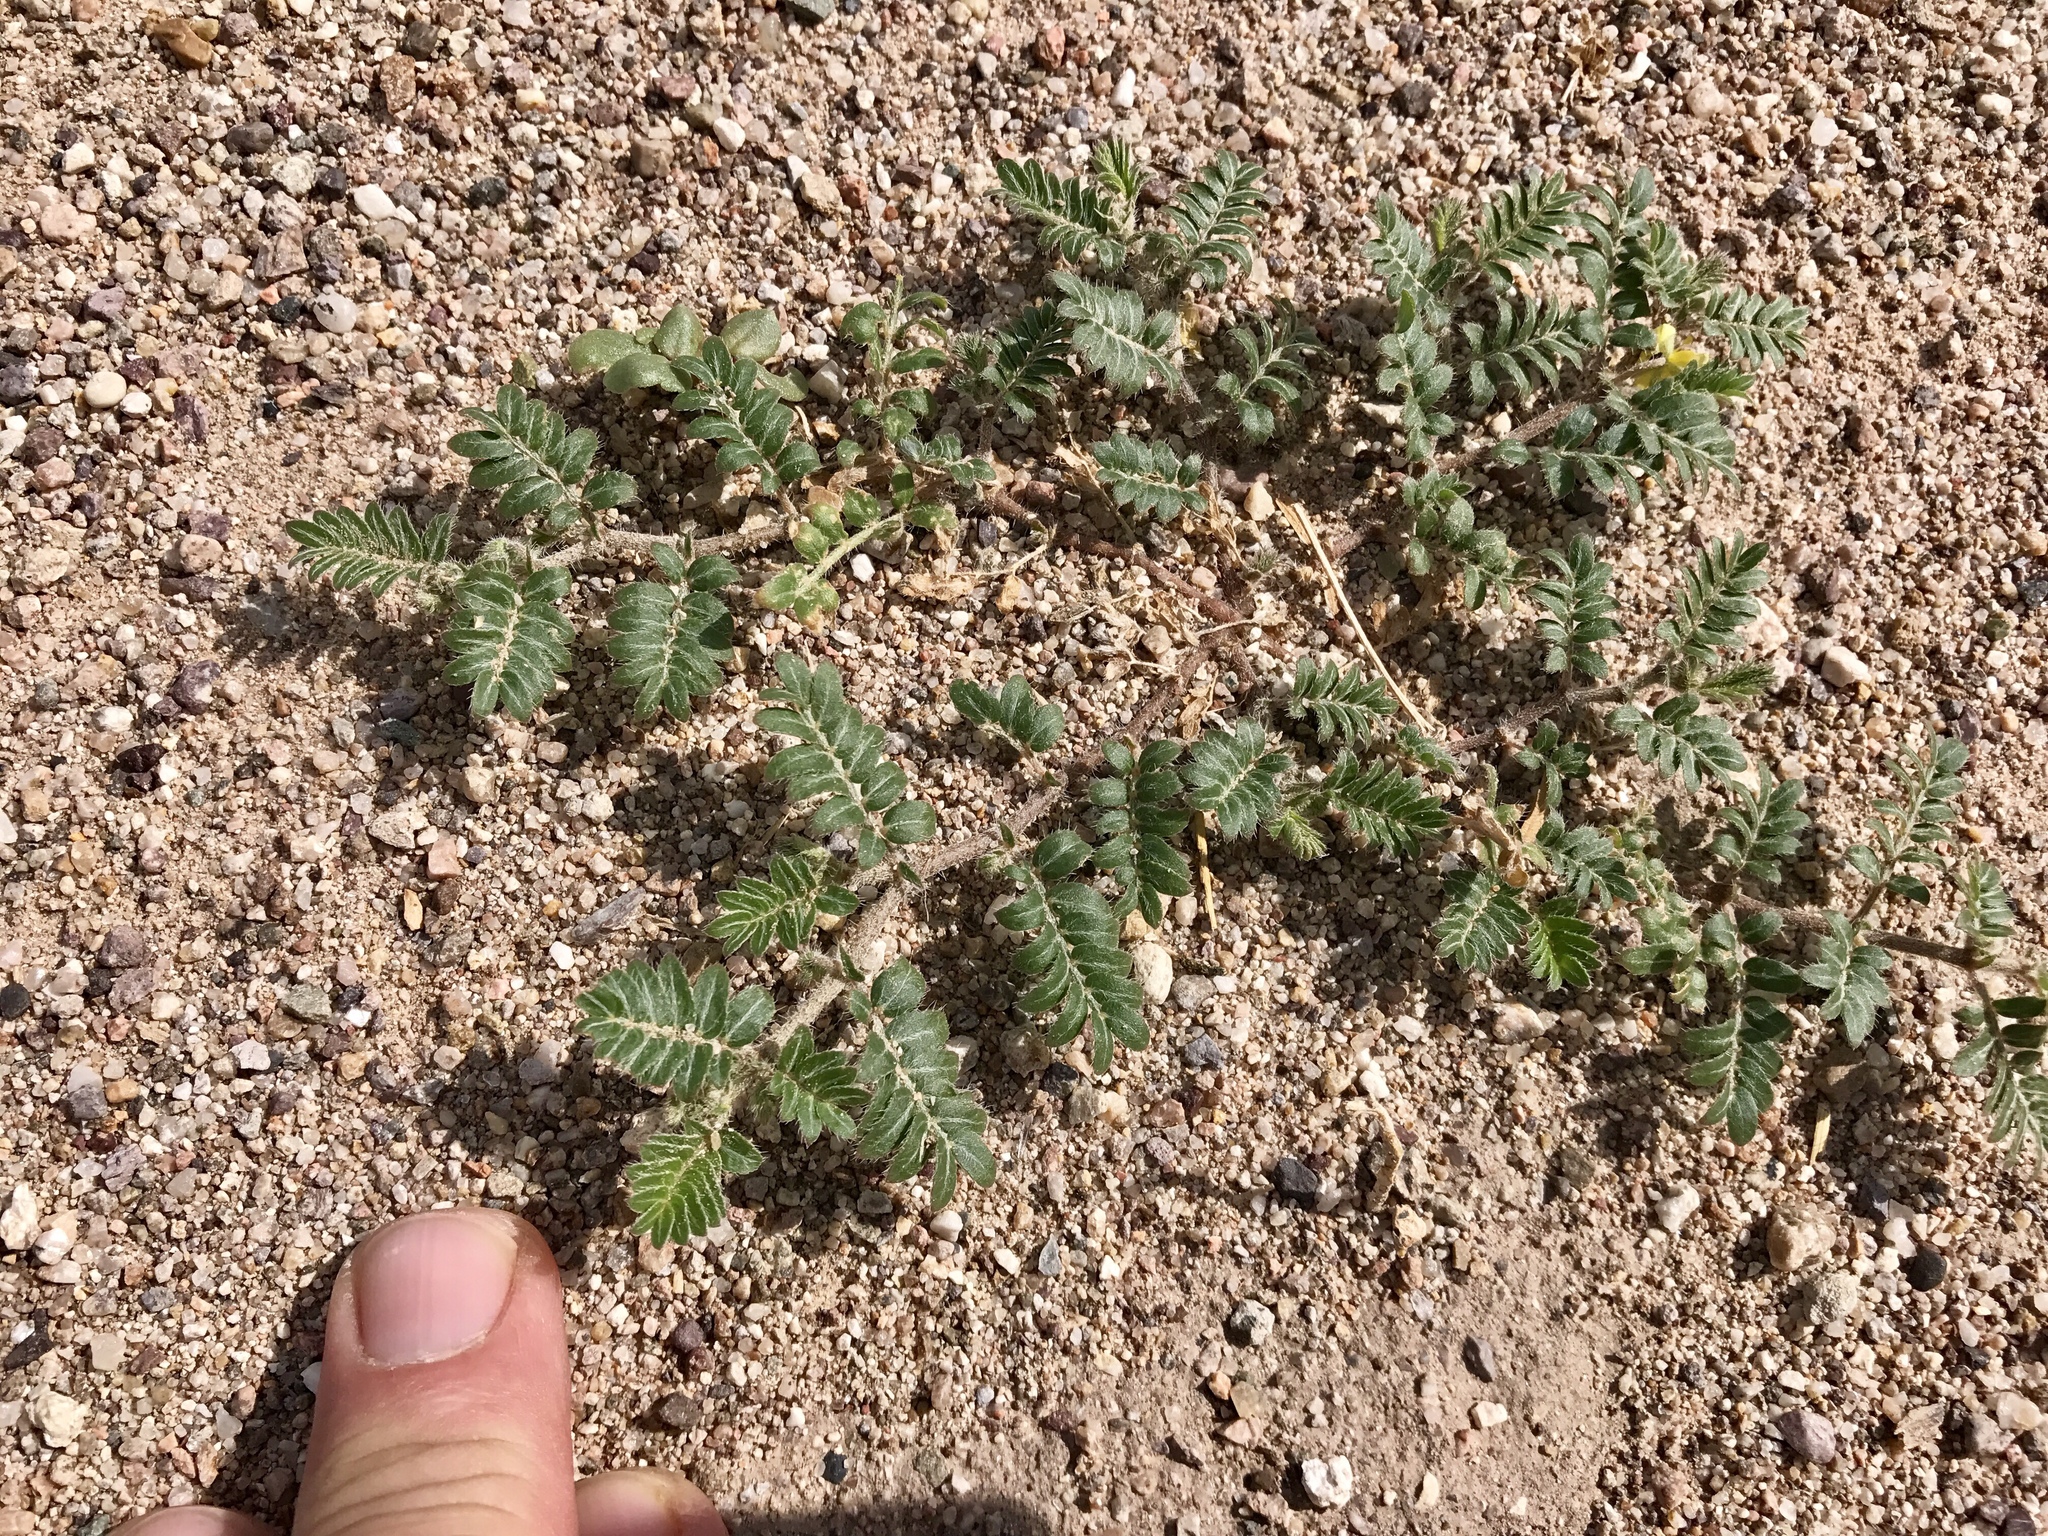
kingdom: Plantae
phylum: Tracheophyta
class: Magnoliopsida
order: Zygophyllales
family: Zygophyllaceae
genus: Tribulus
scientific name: Tribulus terrestris
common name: Puncturevine
